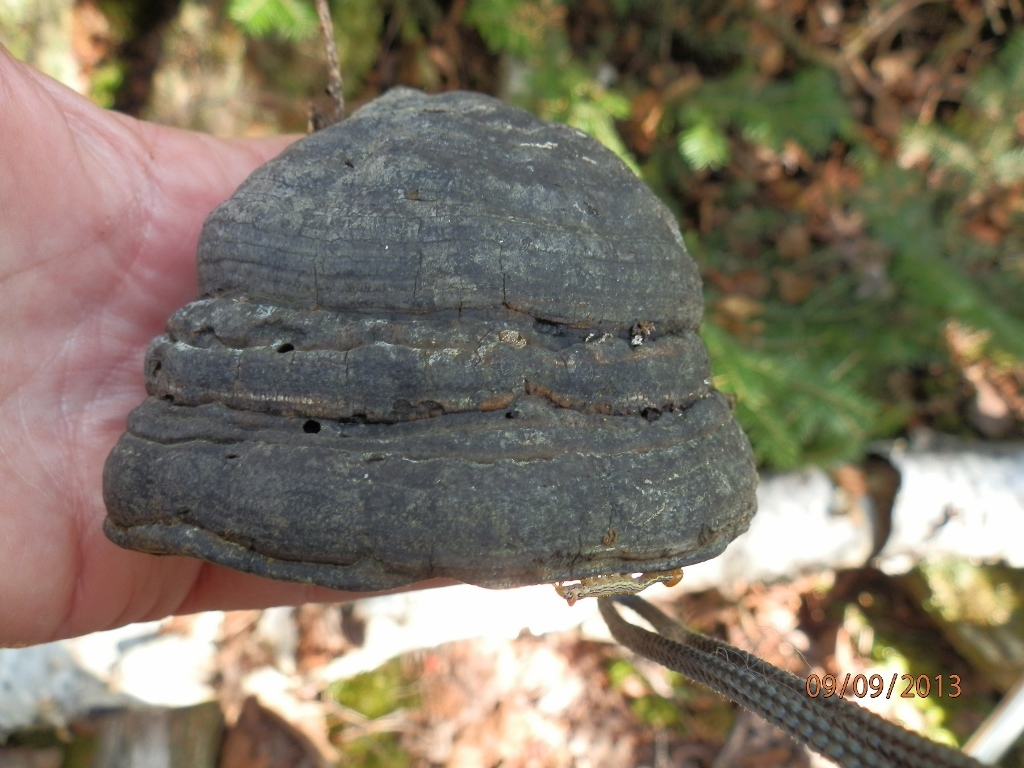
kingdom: Fungi
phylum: Basidiomycota
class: Agaricomycetes
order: Polyporales
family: Polyporaceae
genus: Fomes
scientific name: Fomes fomentarius
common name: Hoof fungus
